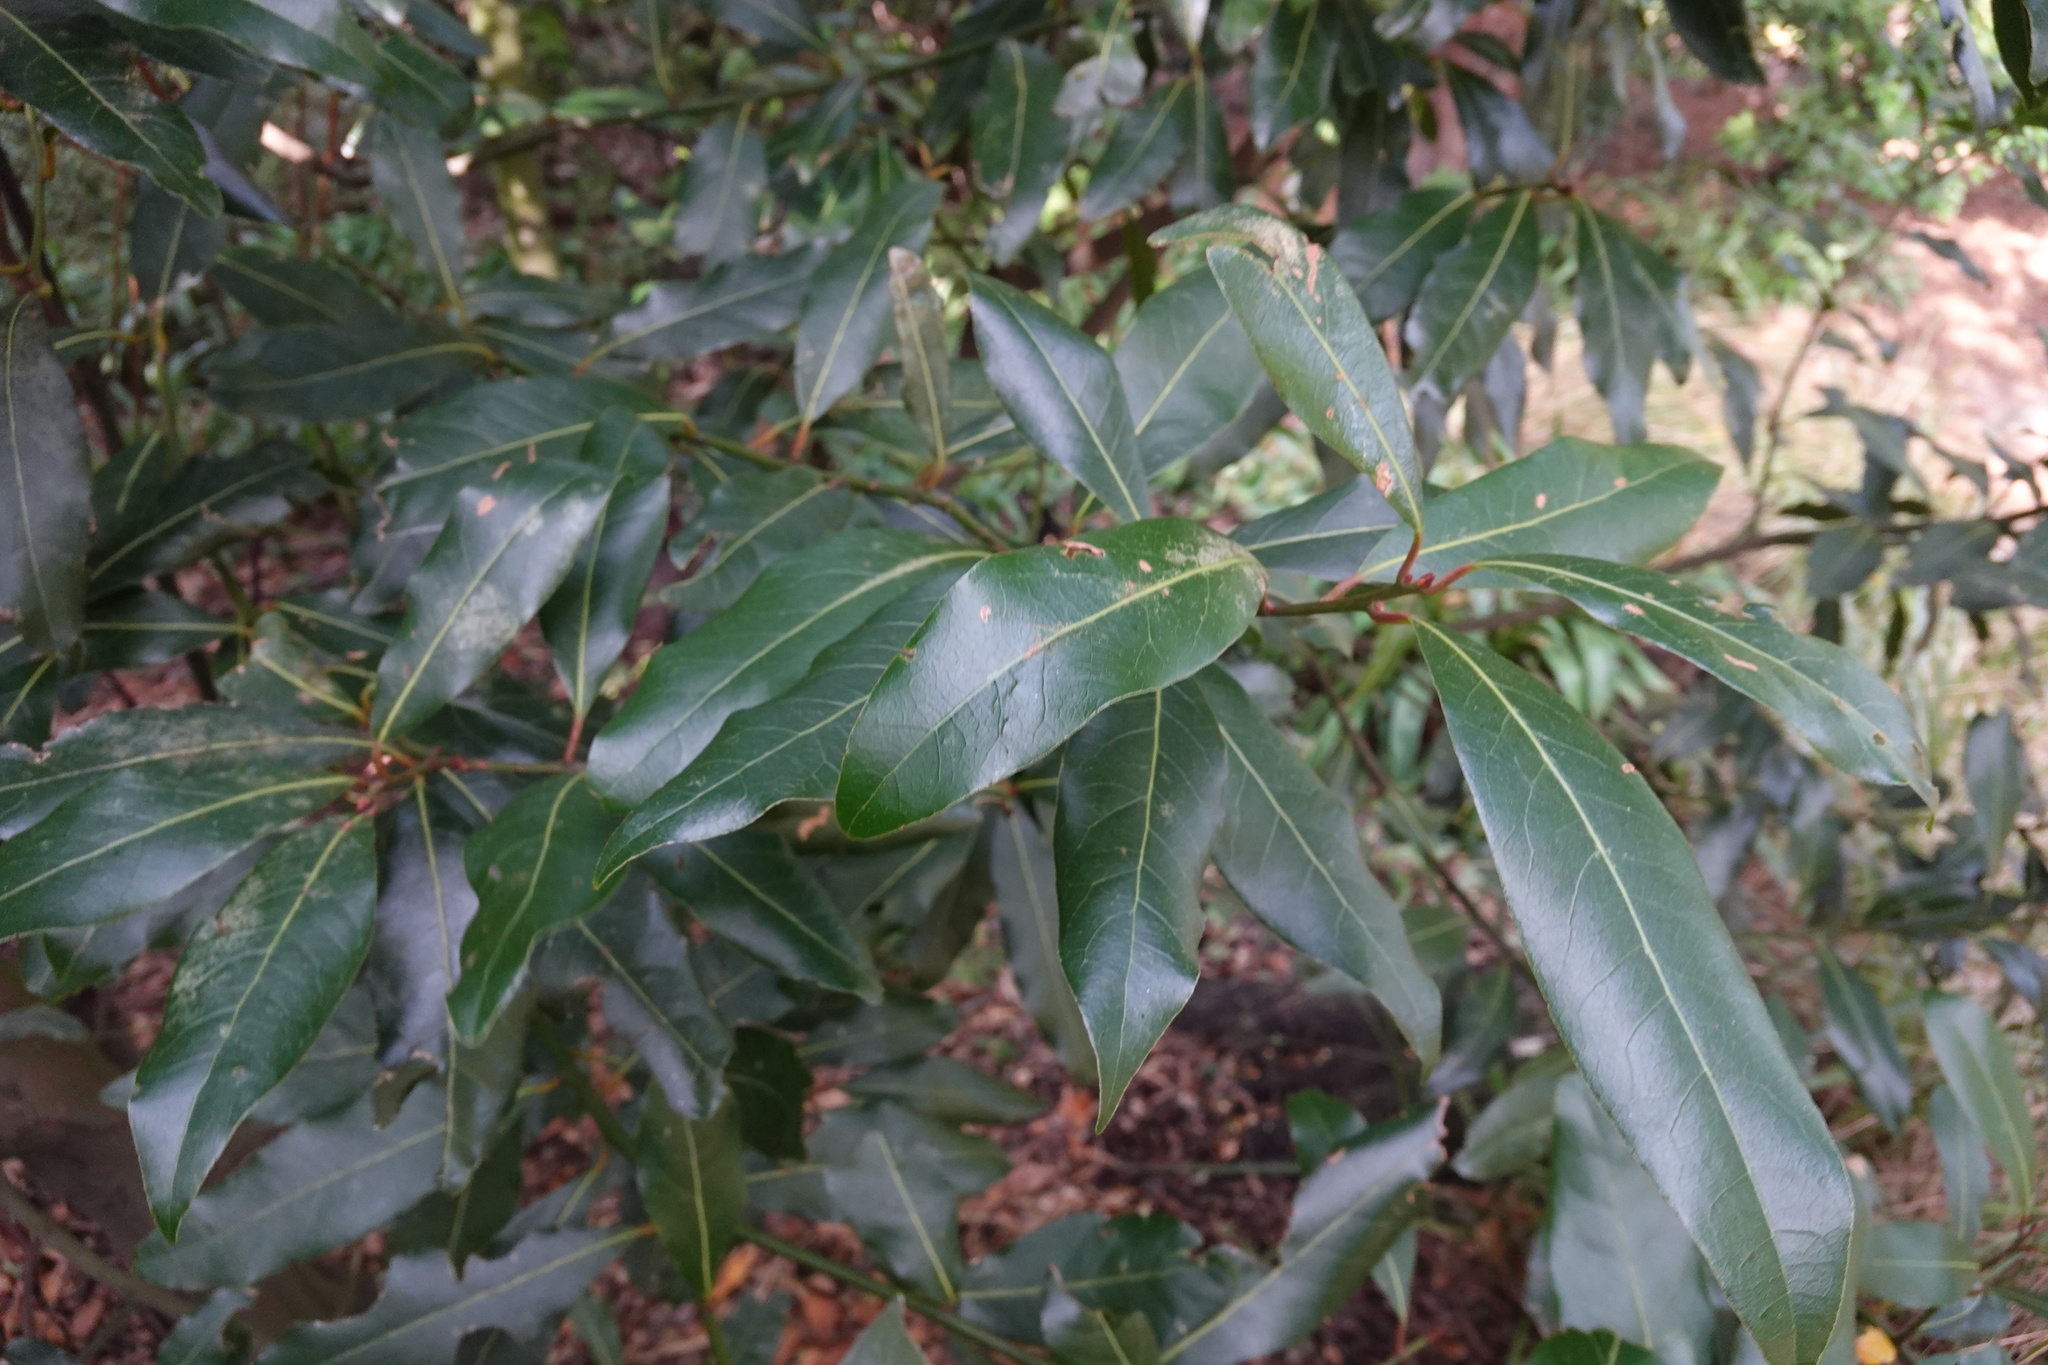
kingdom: Plantae
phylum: Tracheophyta
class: Magnoliopsida
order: Laurales
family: Lauraceae
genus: Laurus
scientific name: Laurus nobilis
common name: Bay
